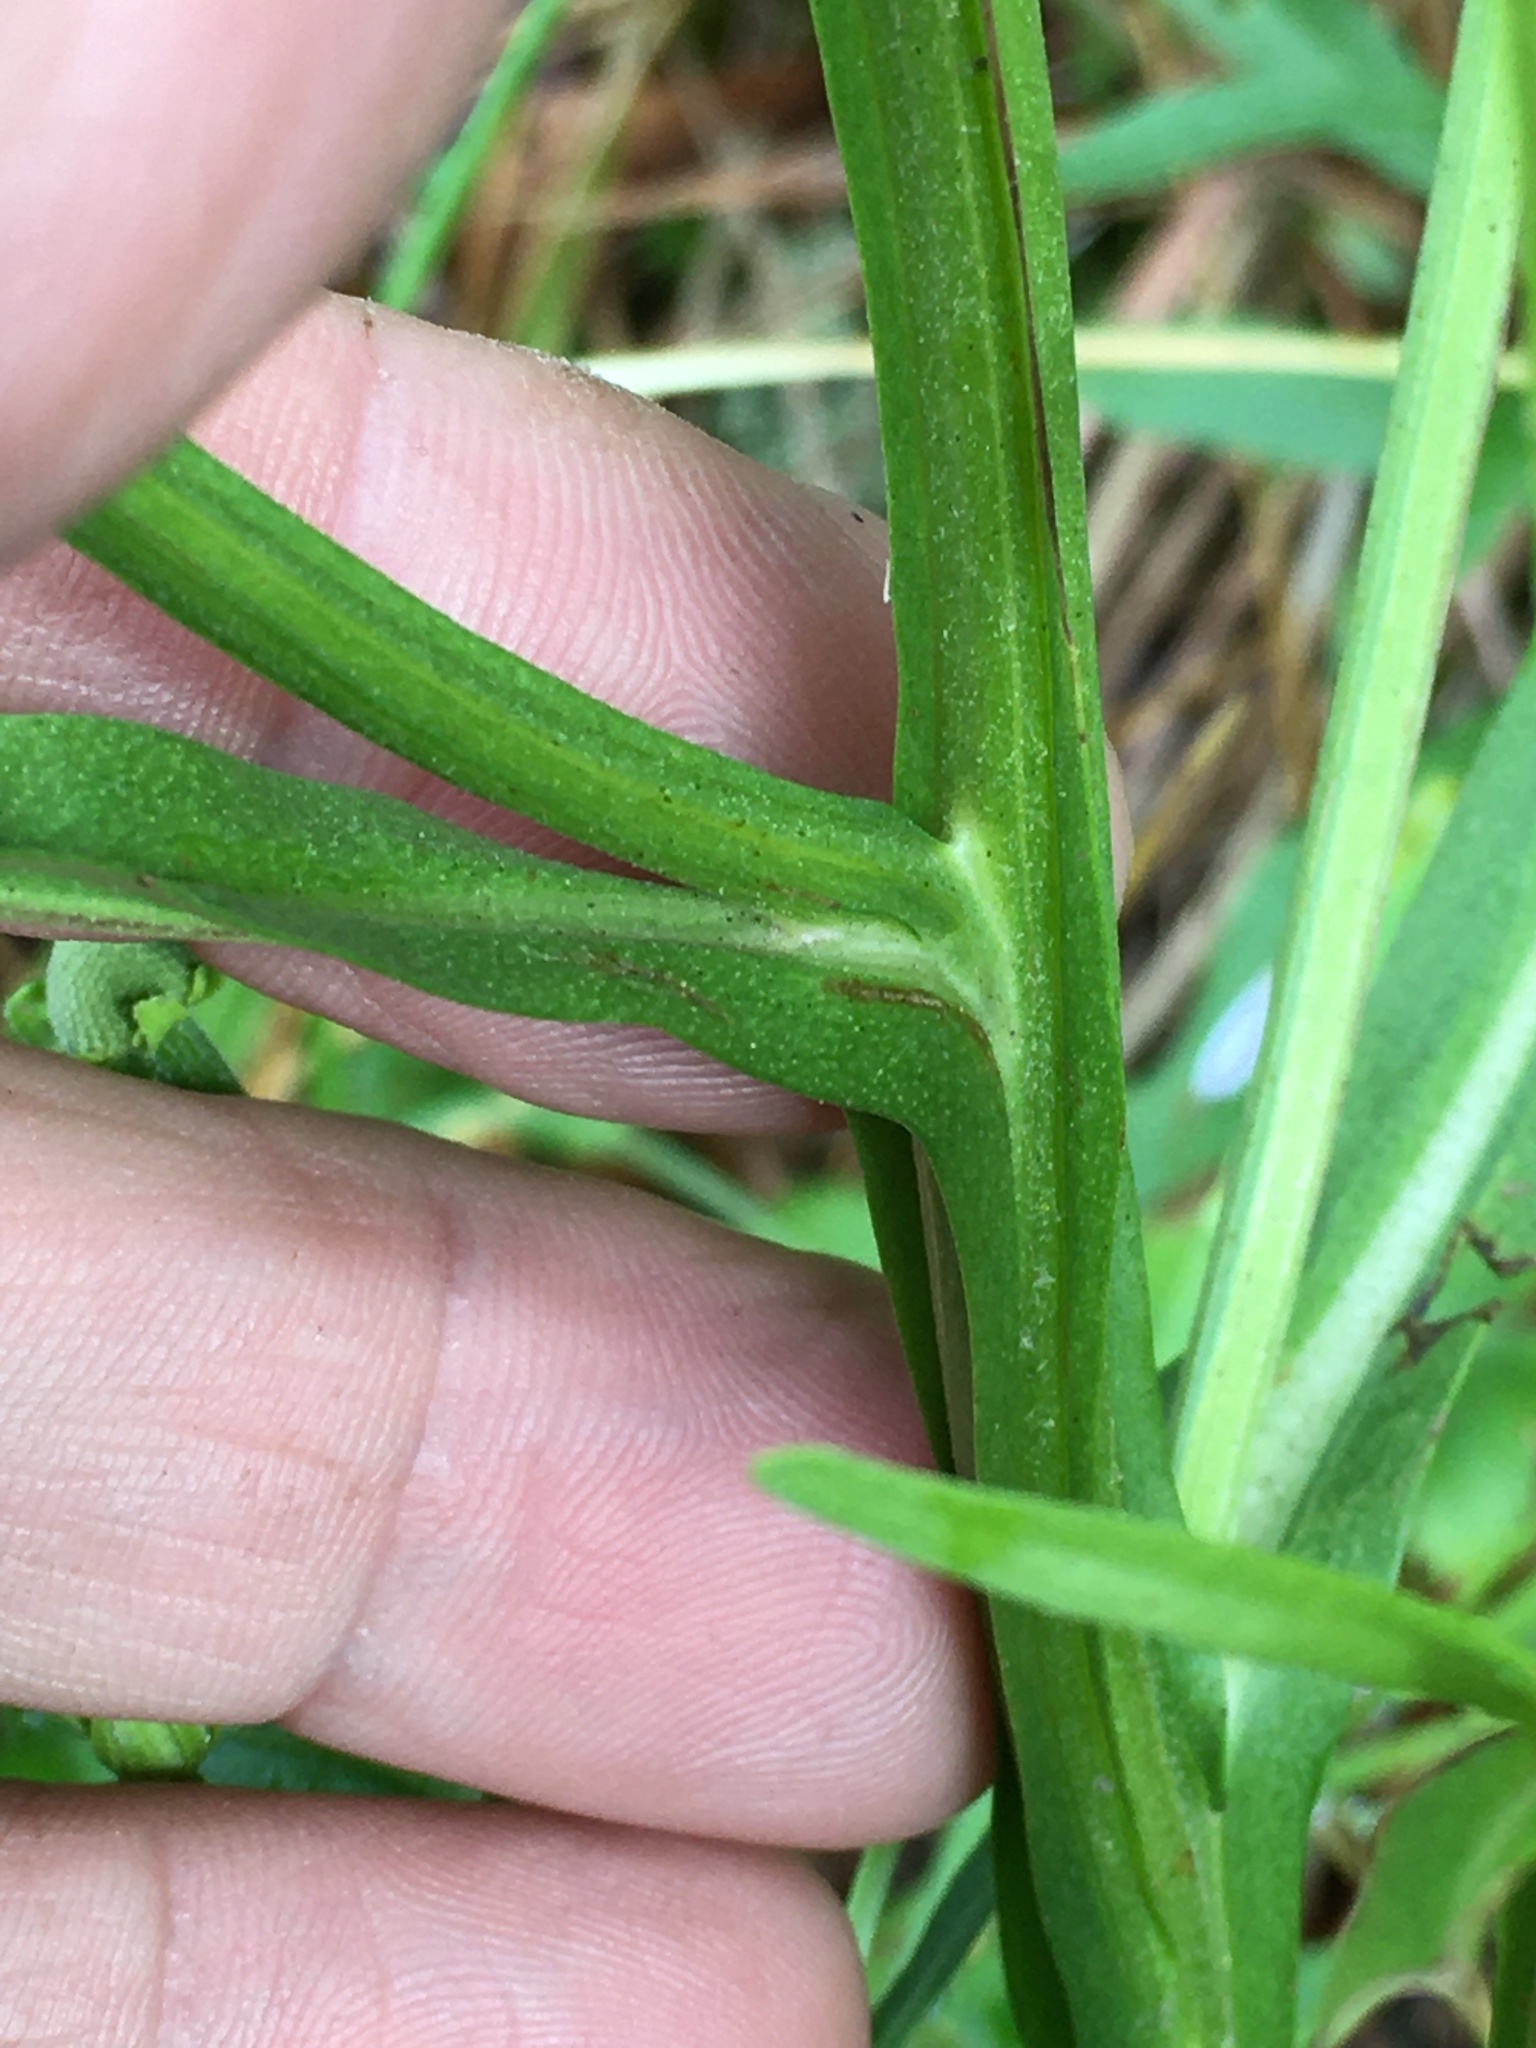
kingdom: Plantae
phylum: Tracheophyta
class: Magnoliopsida
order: Asterales
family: Asteraceae
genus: Helenium
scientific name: Helenium flexuosum
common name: Naked-flowered sneezeweed
